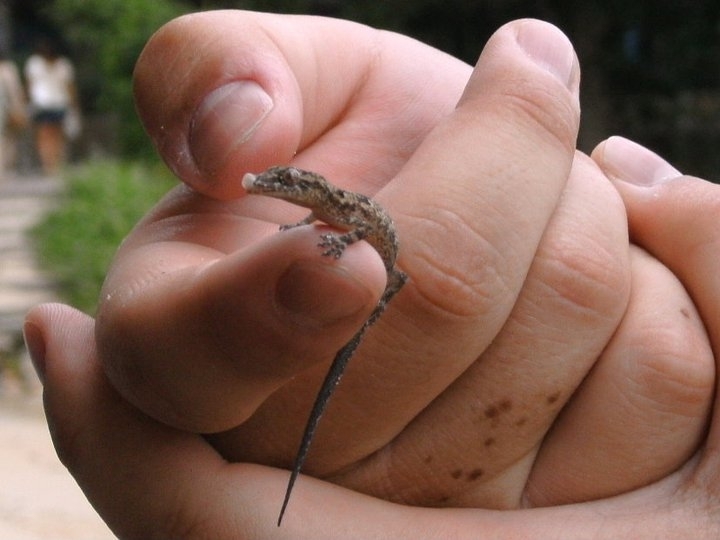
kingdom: Animalia
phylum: Chordata
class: Squamata
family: Gekkonidae
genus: Hemidactylus
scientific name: Hemidactylus mabouia
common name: House gecko
